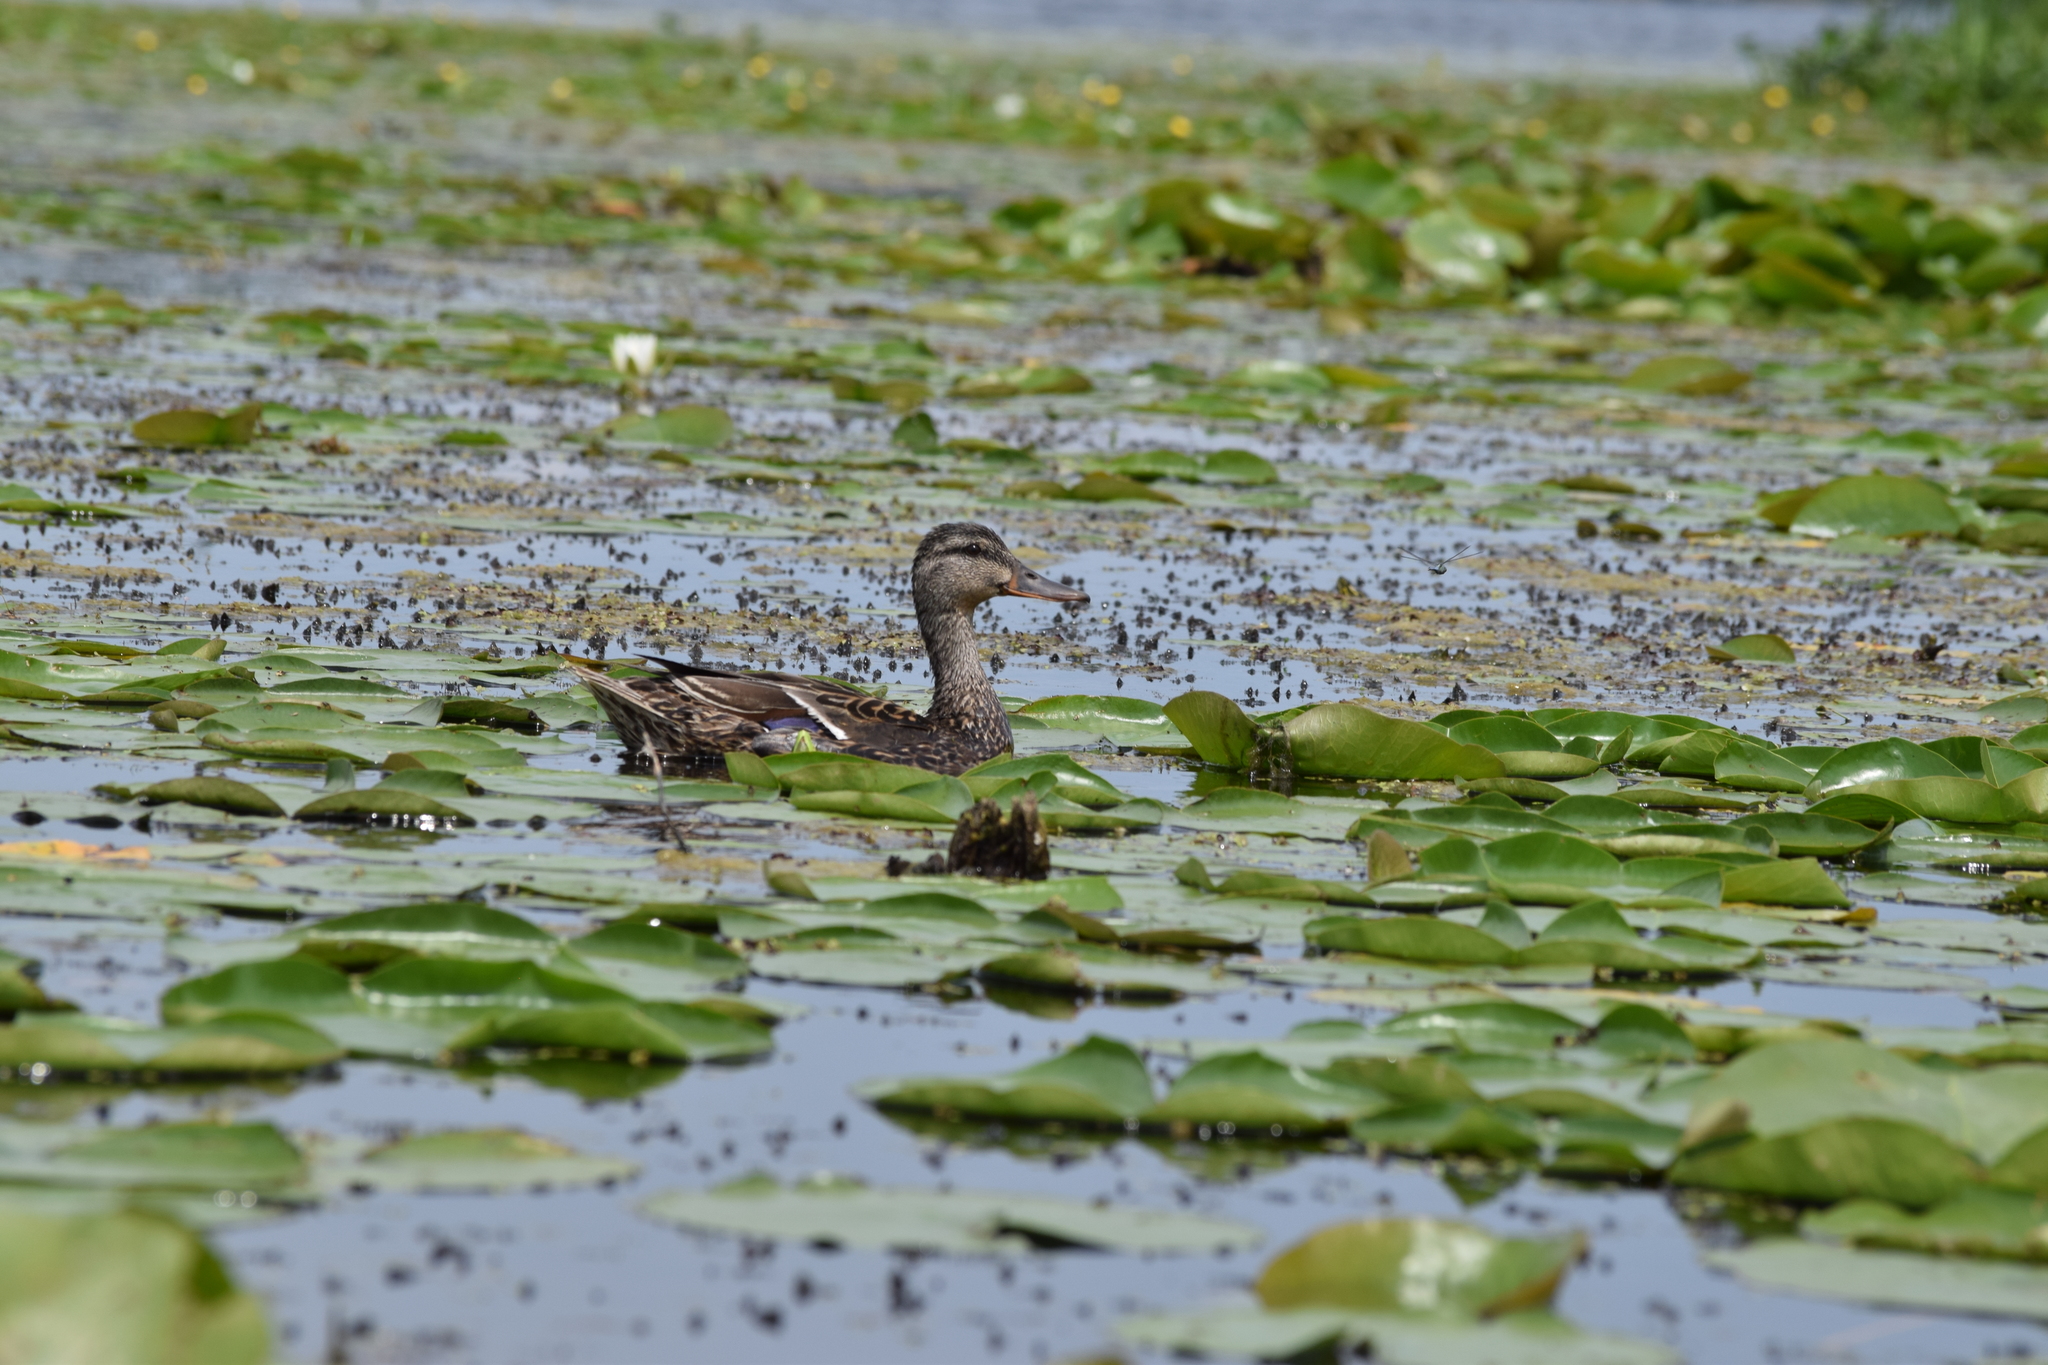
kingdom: Animalia
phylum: Chordata
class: Aves
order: Anseriformes
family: Anatidae
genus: Anas
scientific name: Anas platyrhynchos
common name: Mallard
